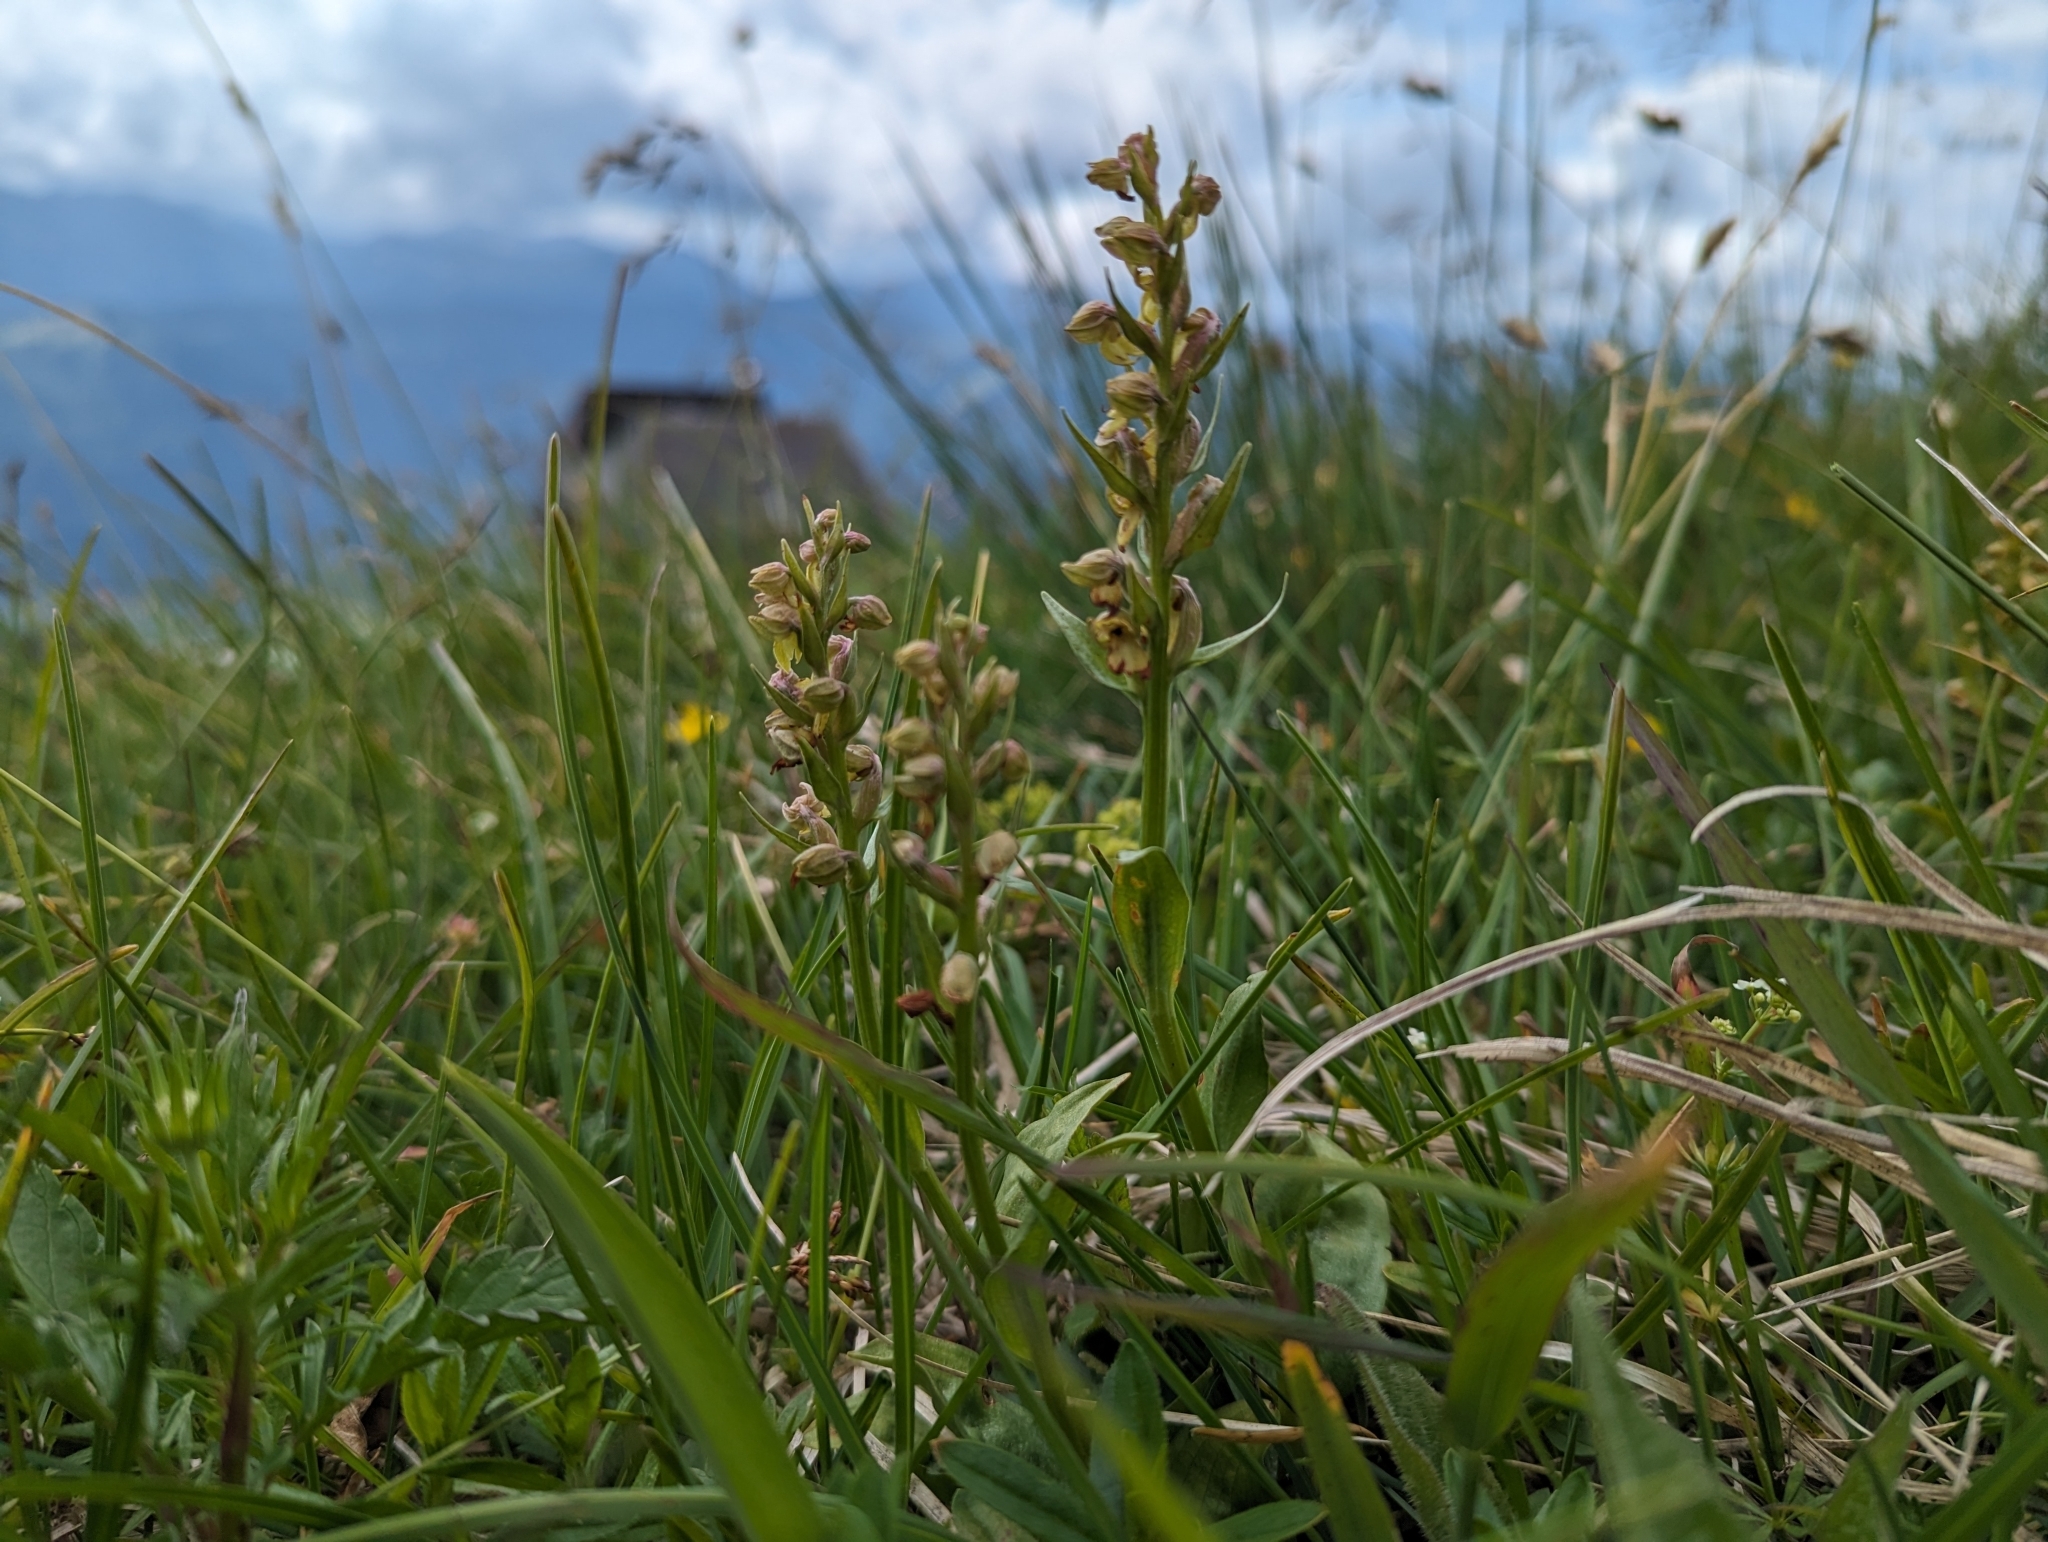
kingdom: Plantae
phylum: Tracheophyta
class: Liliopsida
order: Asparagales
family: Orchidaceae
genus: Dactylorhiza
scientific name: Dactylorhiza viridis
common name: Longbract frog orchid
